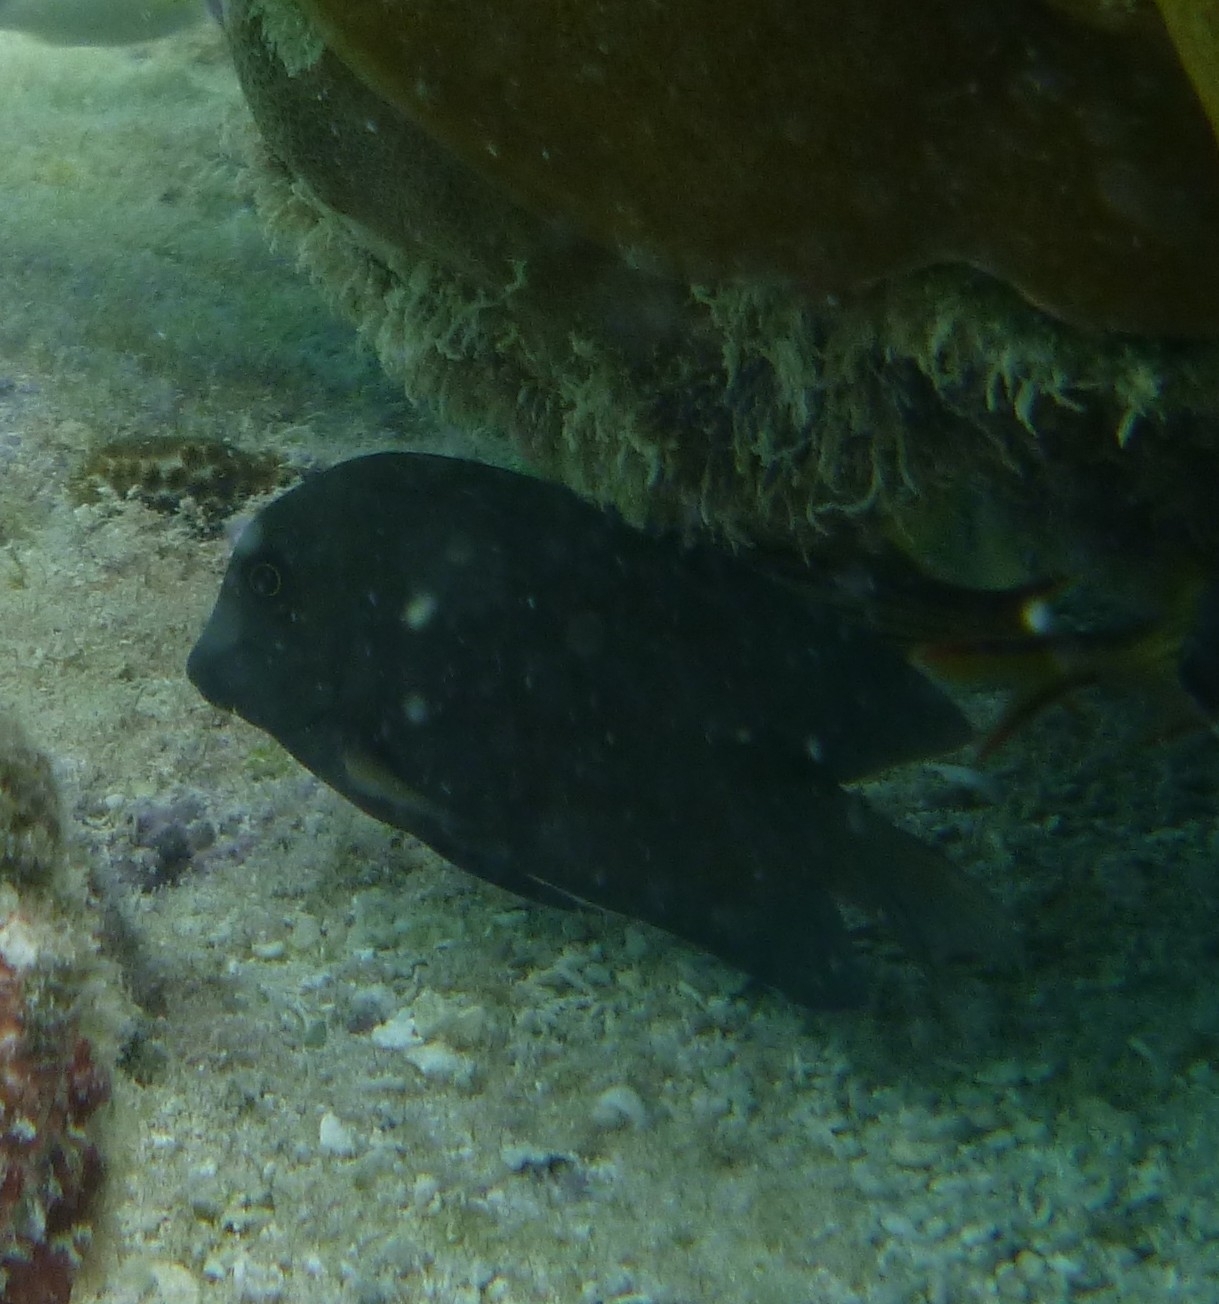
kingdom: Animalia
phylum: Chordata
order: Perciformes
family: Acanthuridae
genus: Ctenochaetus
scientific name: Ctenochaetus striatus
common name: Bristle-toothed surgeonfish
